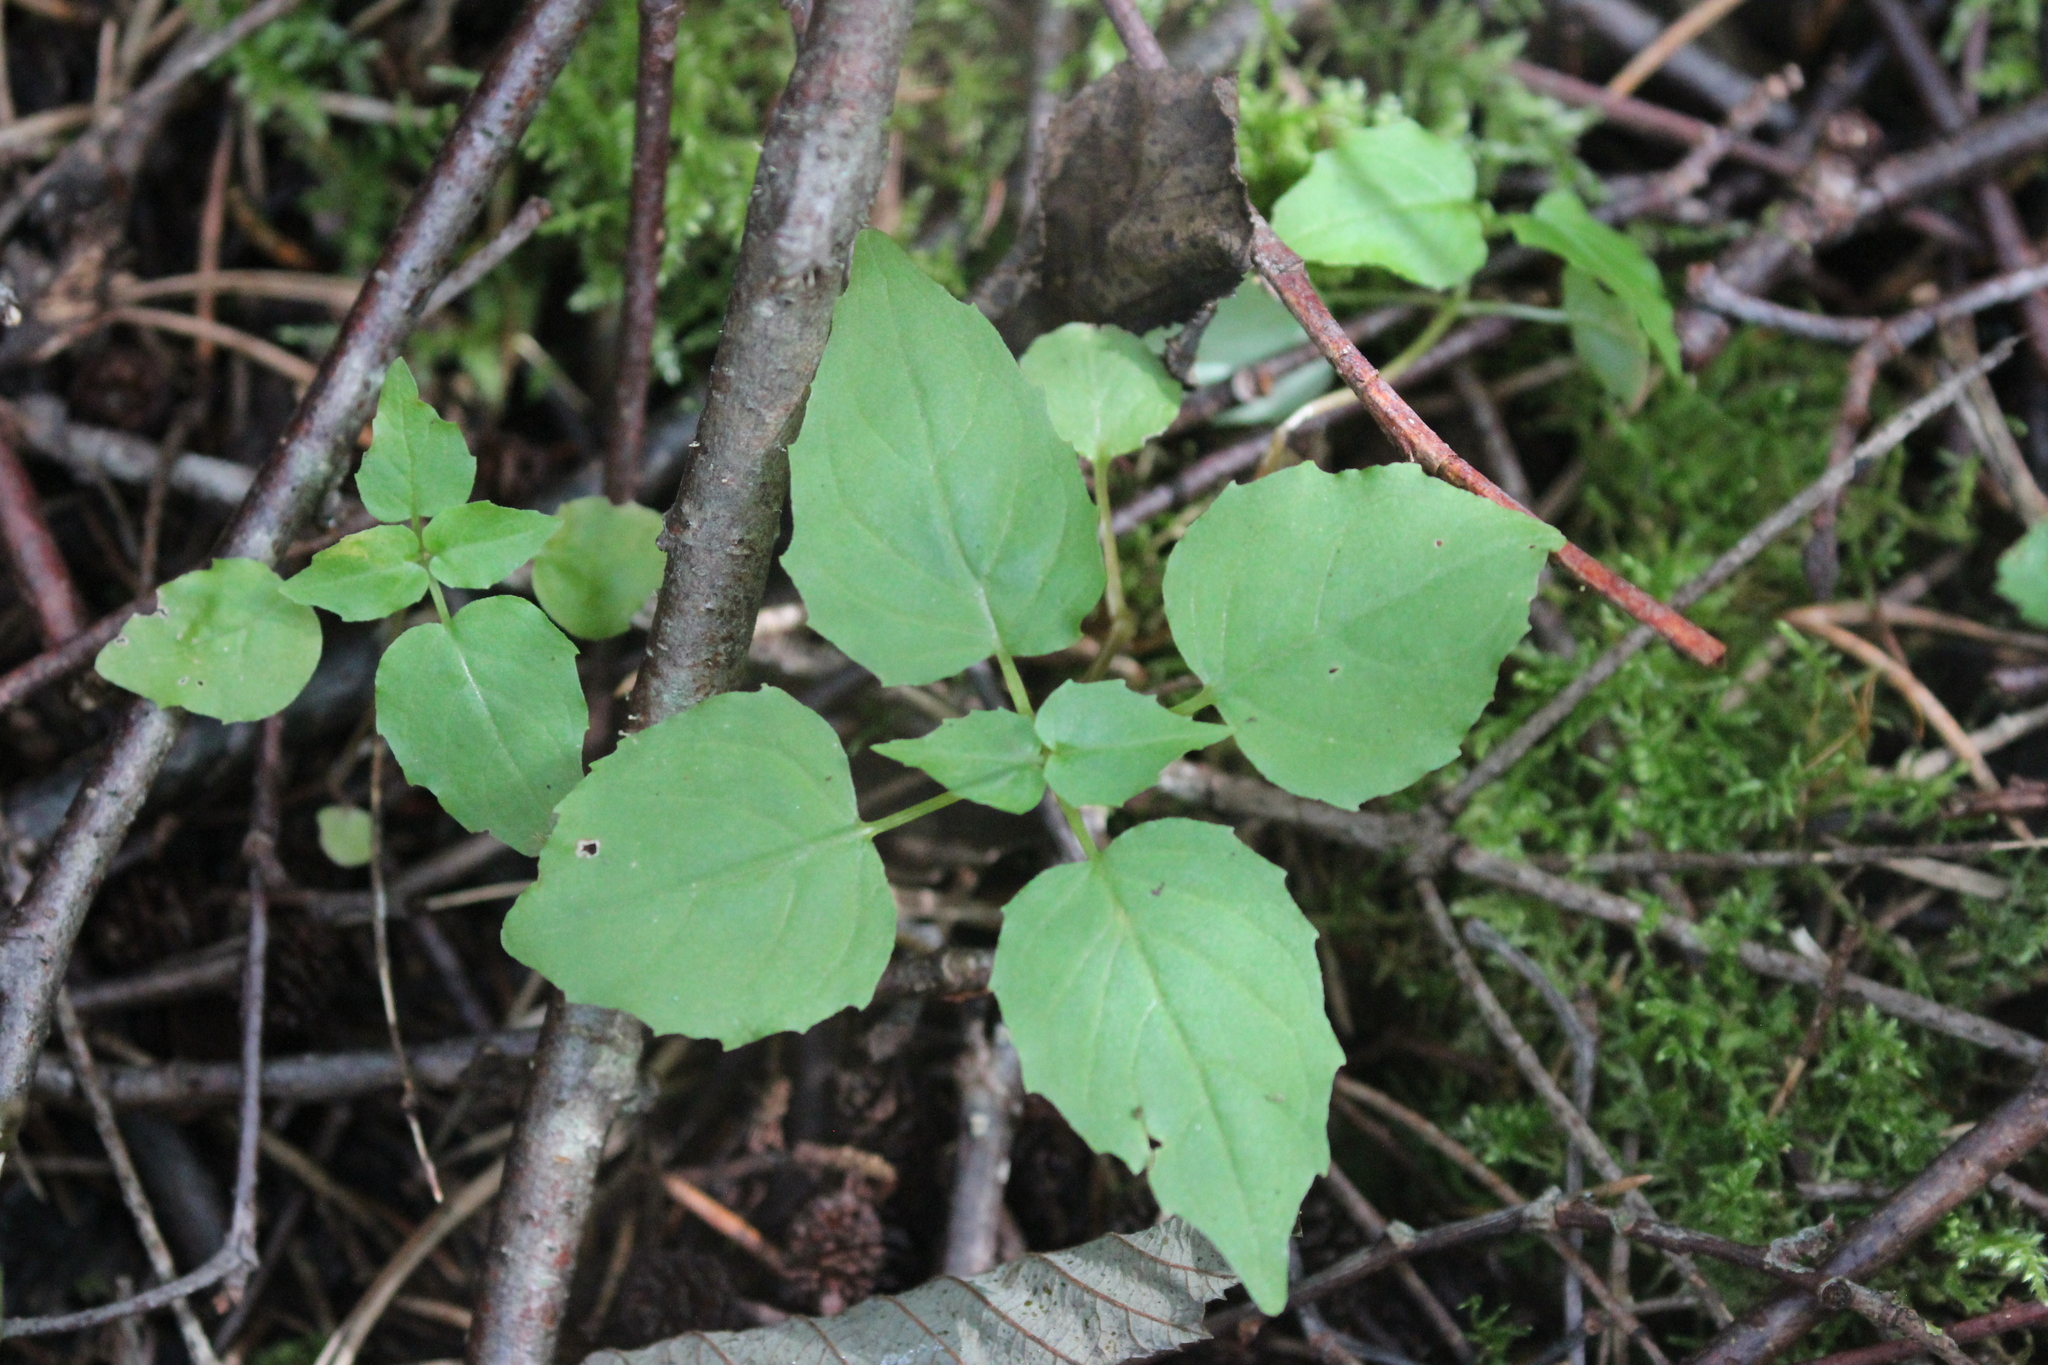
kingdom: Plantae
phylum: Tracheophyta
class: Magnoliopsida
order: Myrtales
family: Onagraceae
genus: Circaea
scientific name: Circaea alpina
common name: Alpine enchanter's-nightshade
